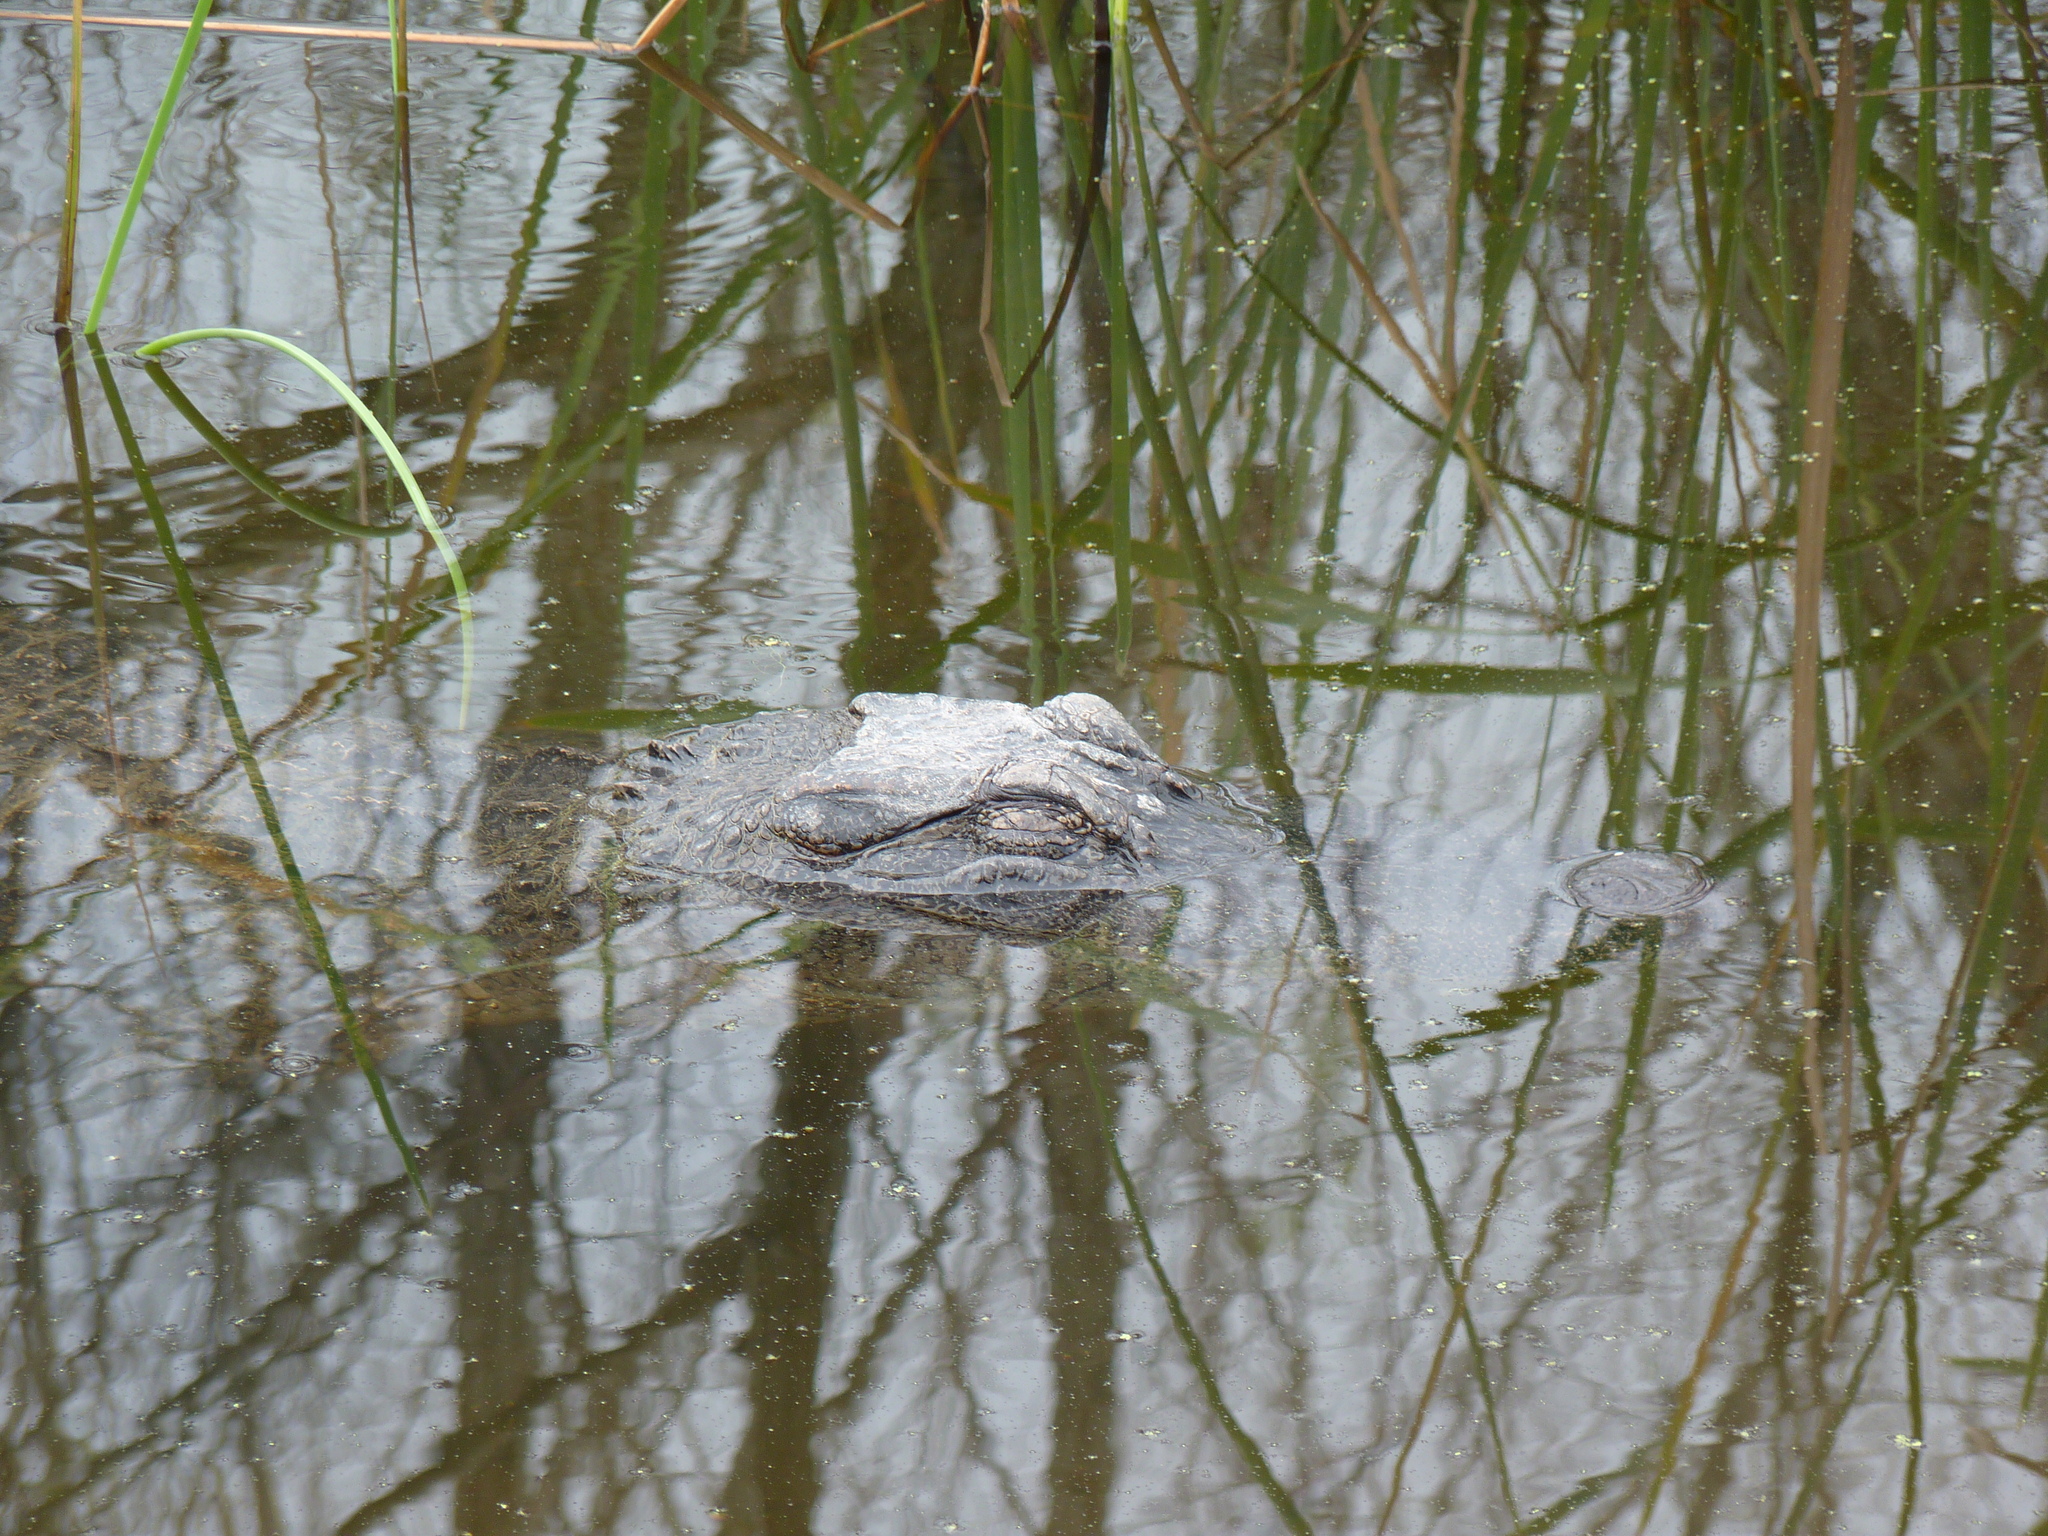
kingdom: Animalia
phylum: Chordata
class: Crocodylia
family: Alligatoridae
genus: Alligator
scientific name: Alligator mississippiensis
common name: American alligator
